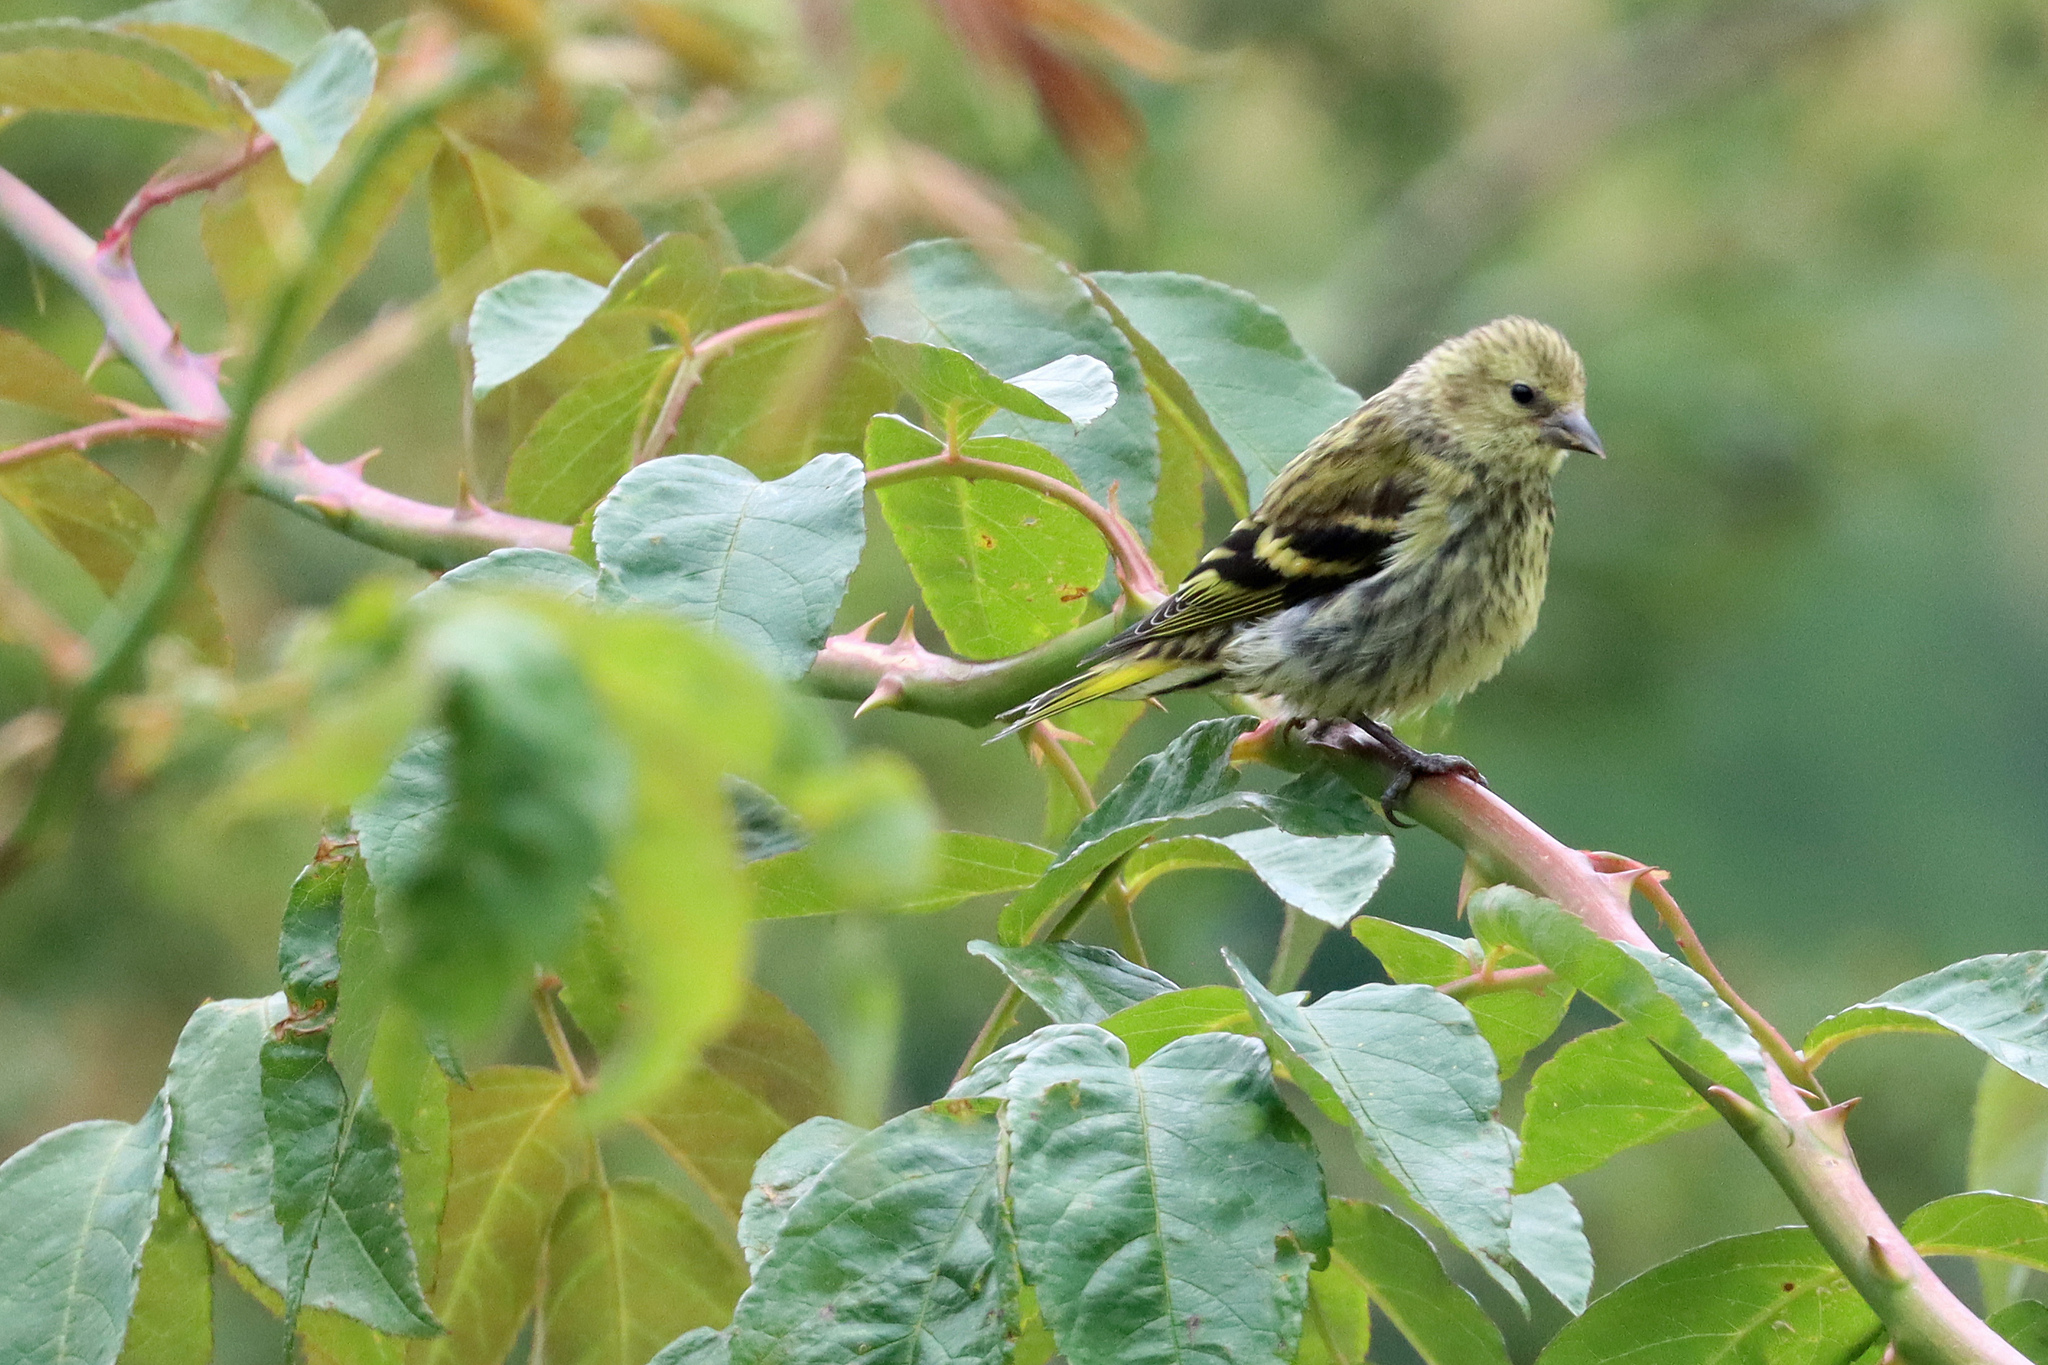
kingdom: Animalia
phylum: Chordata
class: Aves
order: Passeriformes
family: Fringillidae
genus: Spinus
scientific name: Spinus spinus
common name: Eurasian siskin
